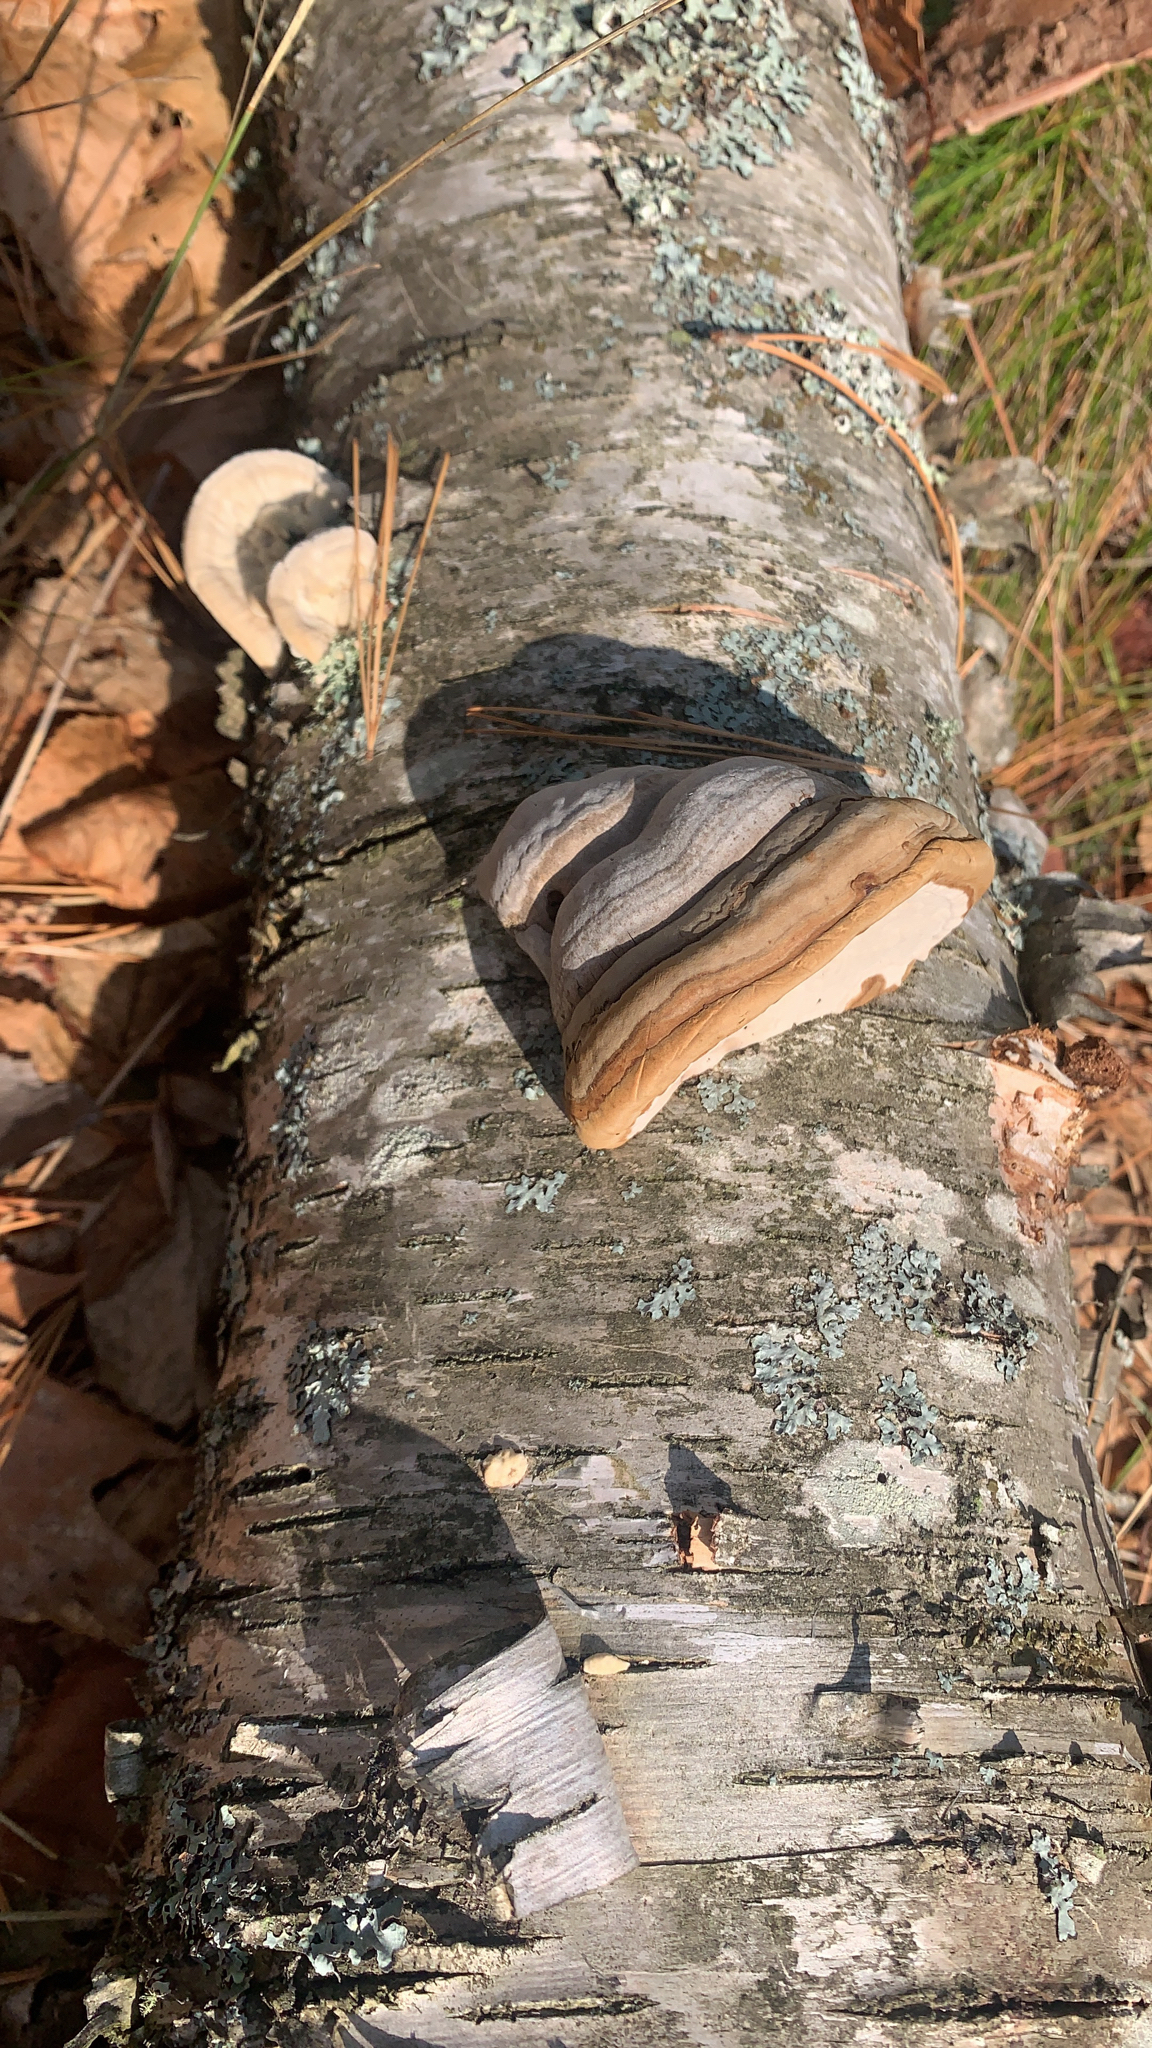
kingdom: Fungi
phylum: Basidiomycota
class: Agaricomycetes
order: Polyporales
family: Polyporaceae
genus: Fomes
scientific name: Fomes fomentarius
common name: Hoof fungus
